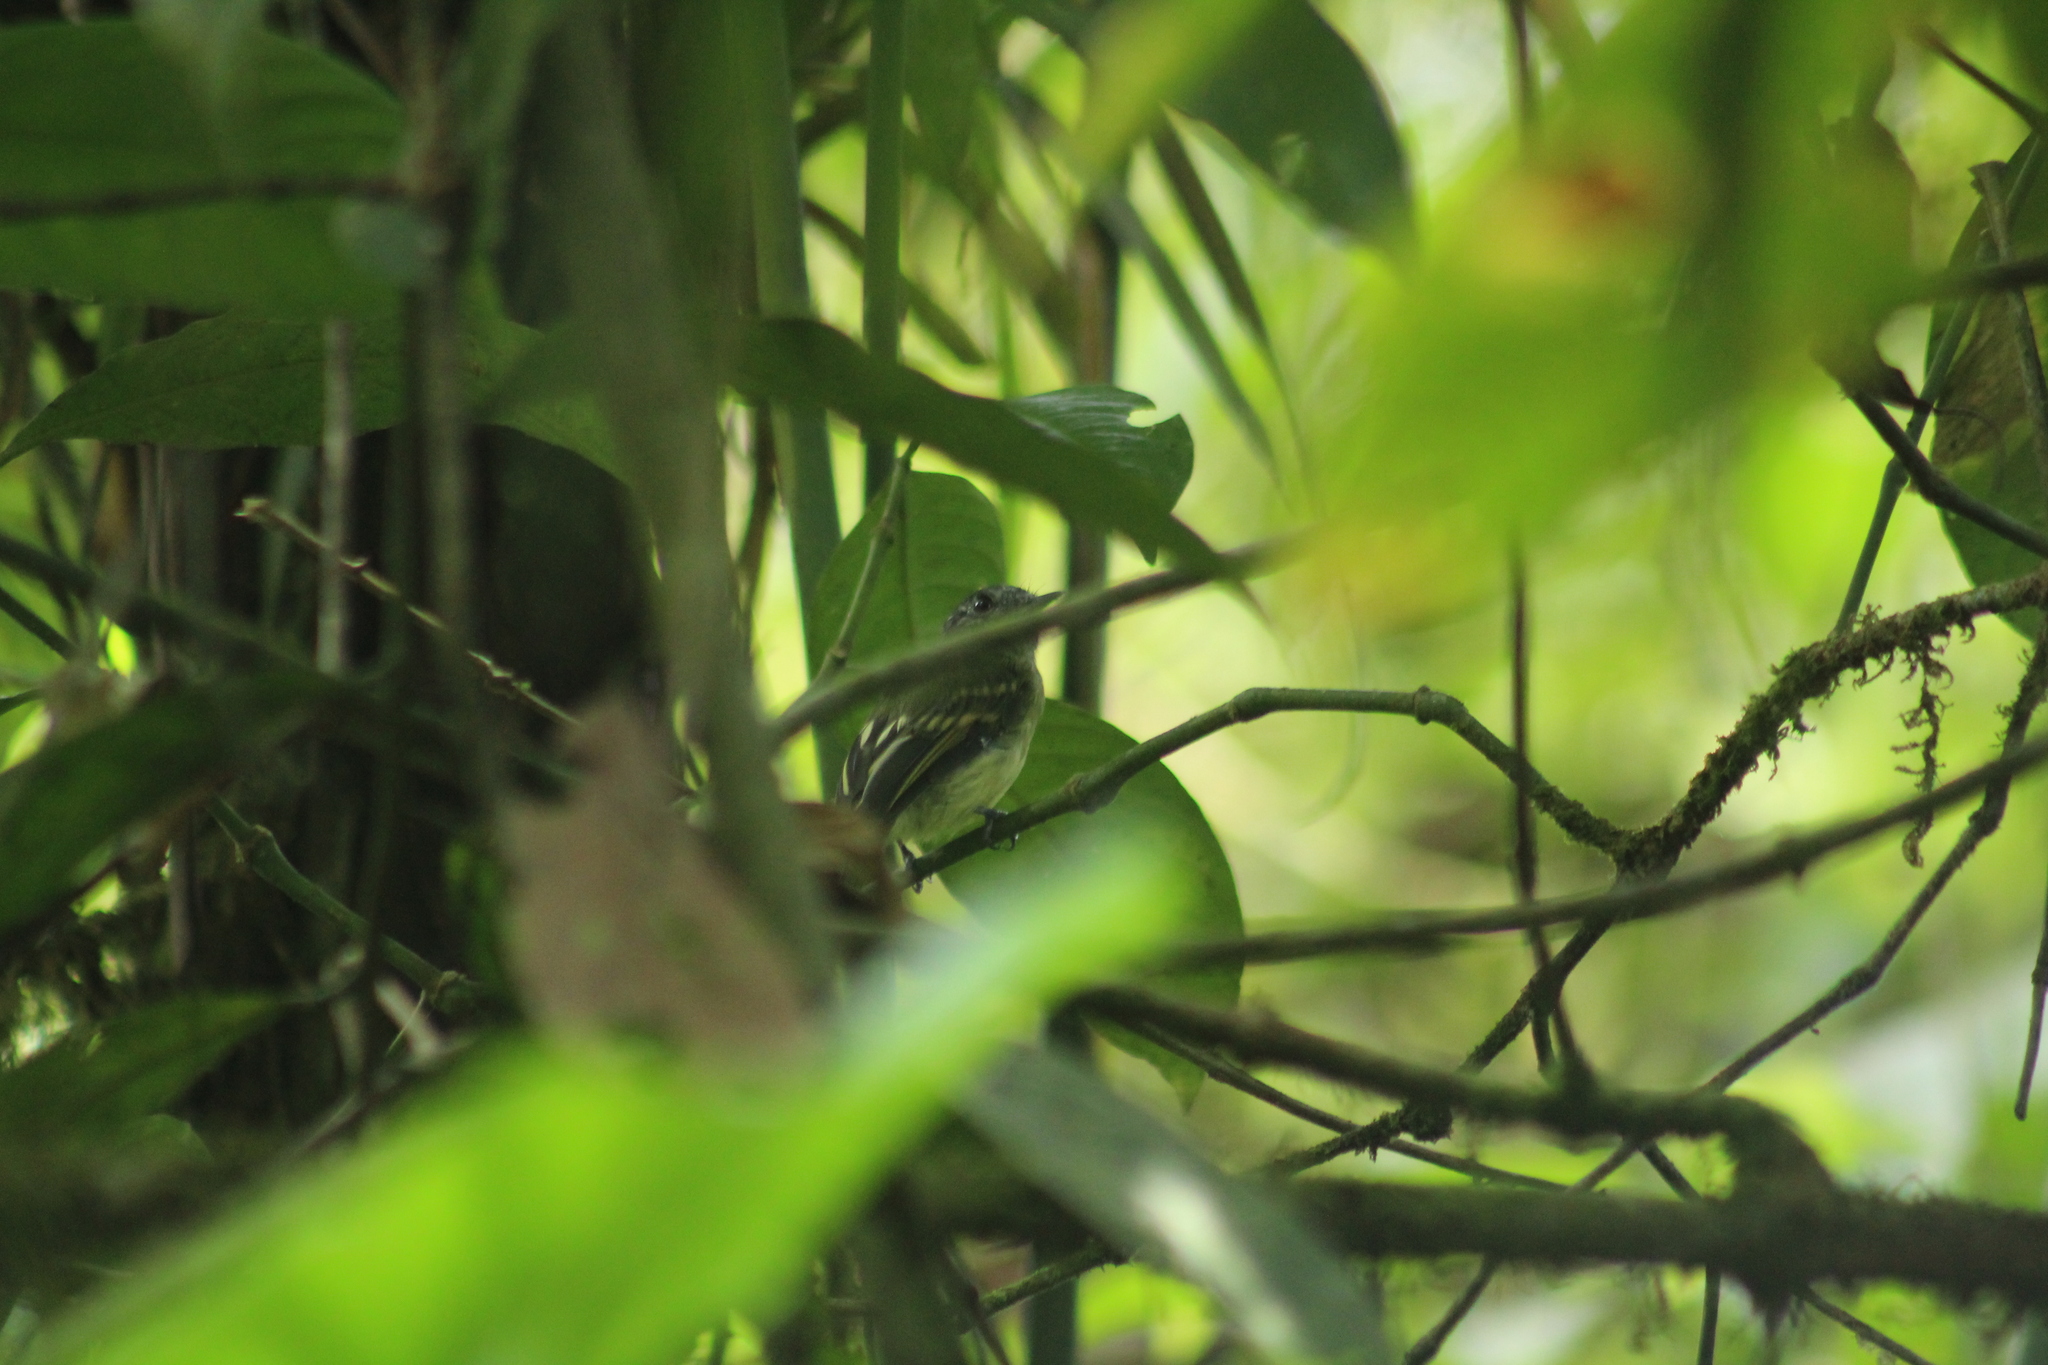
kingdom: Animalia
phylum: Chordata
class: Aves
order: Passeriformes
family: Tyrannidae
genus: Leptopogon
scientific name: Leptopogon superciliaris
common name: Slaty-capped flycatcher
